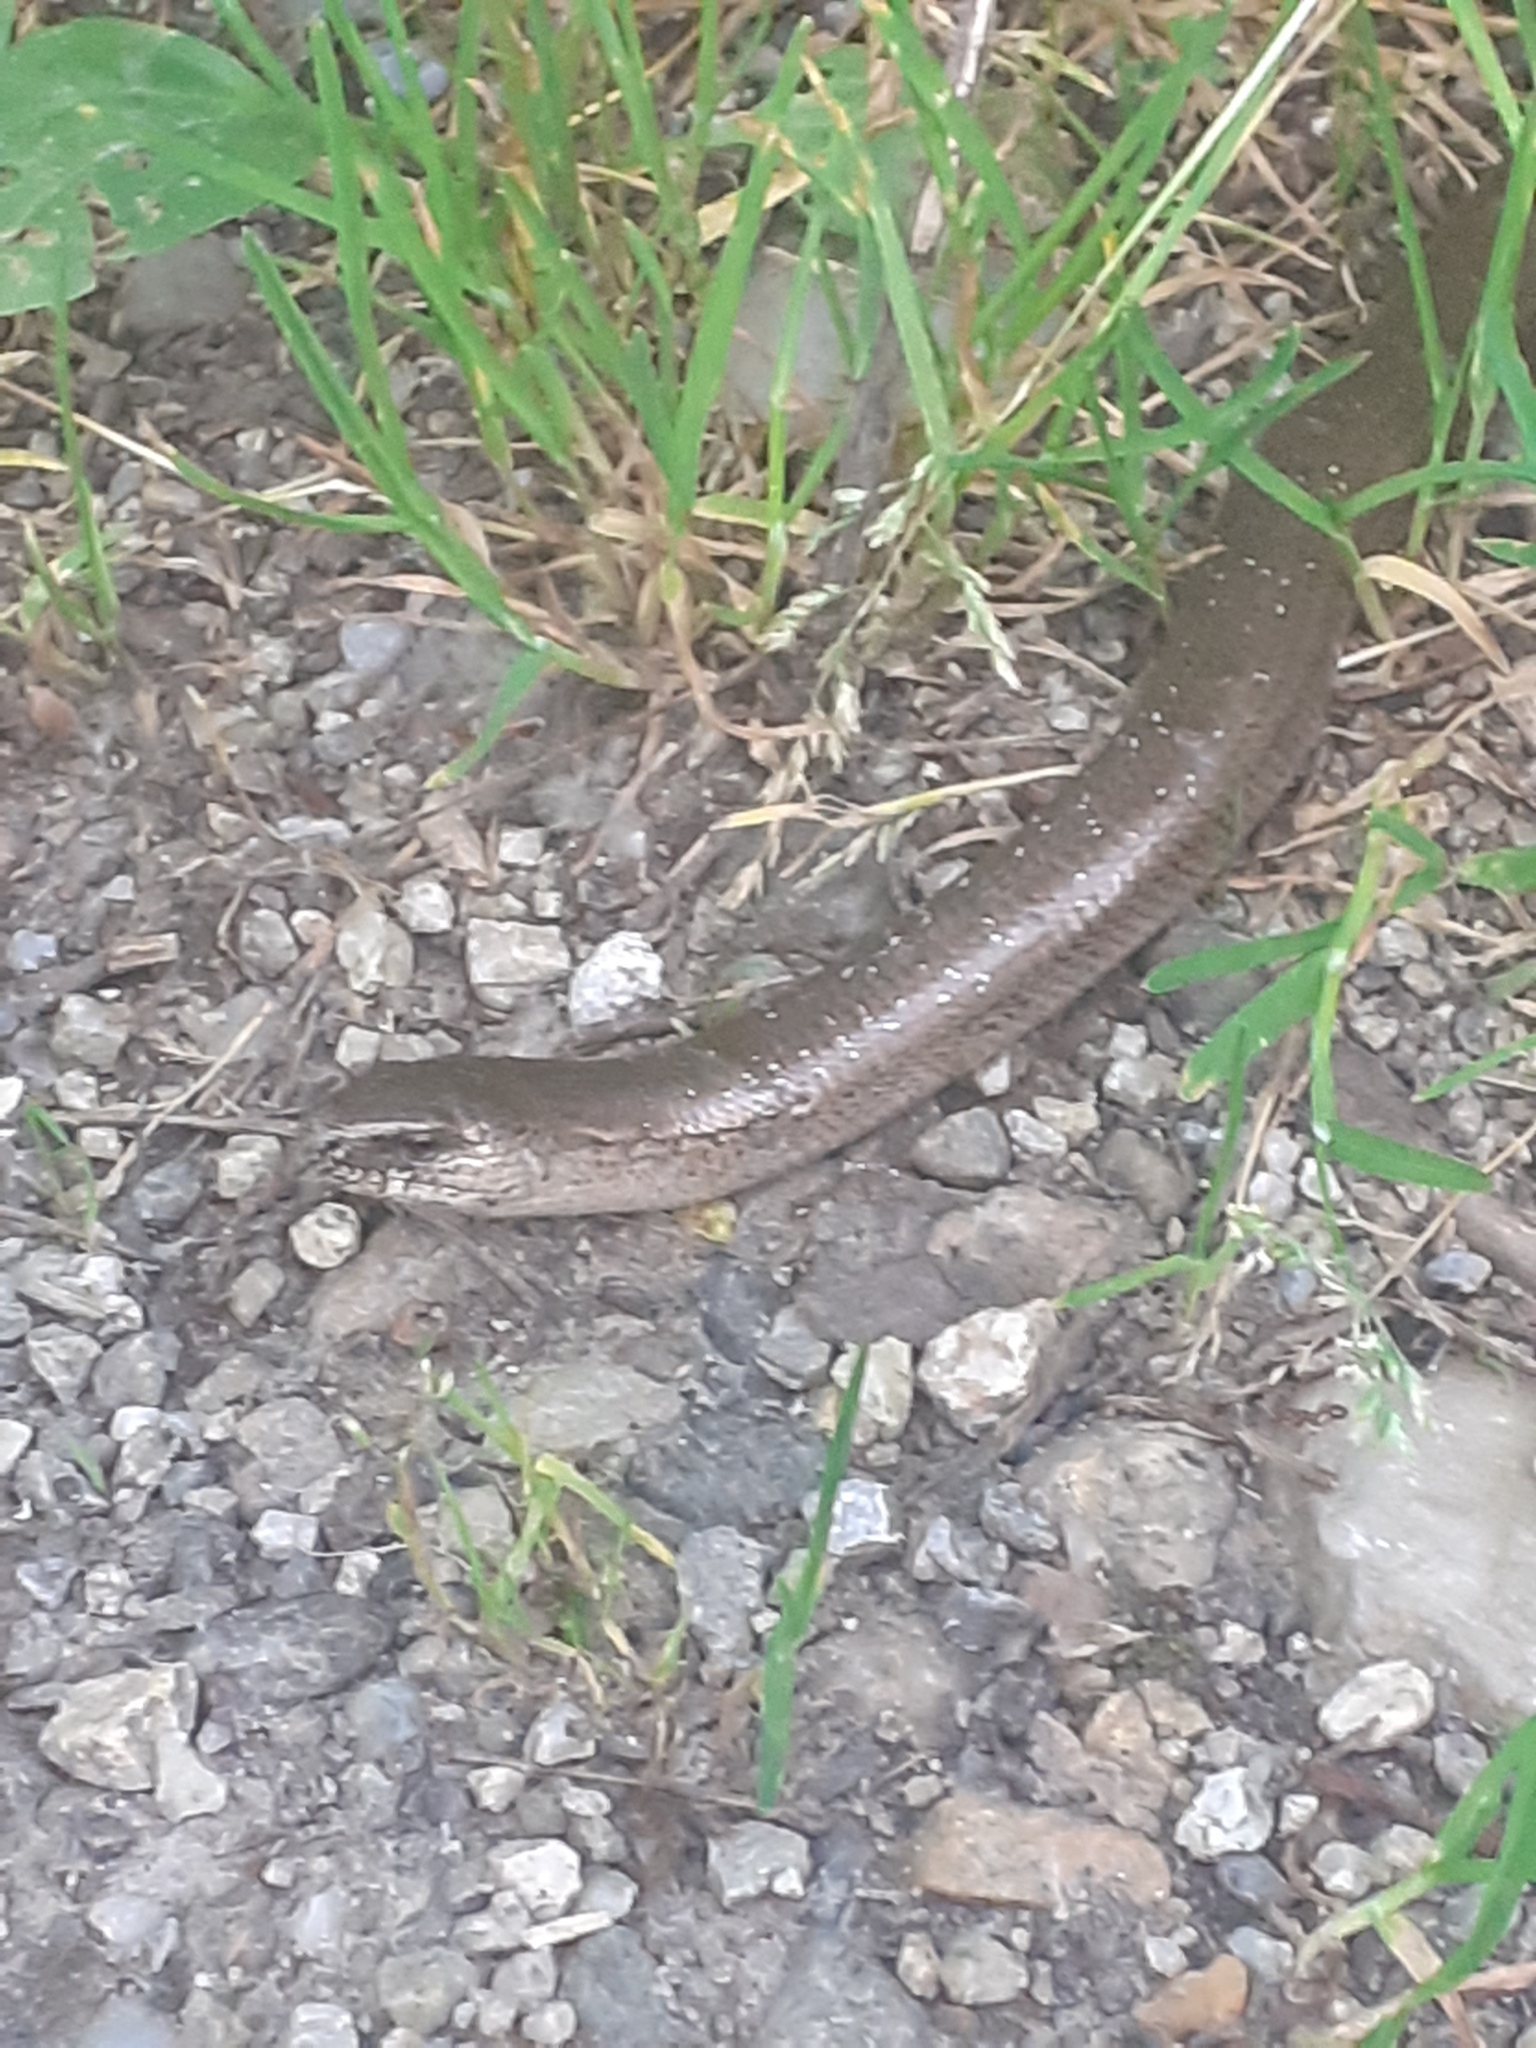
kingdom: Animalia
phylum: Chordata
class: Squamata
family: Anguidae
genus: Anguis
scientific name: Anguis fragilis
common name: Slow worm
